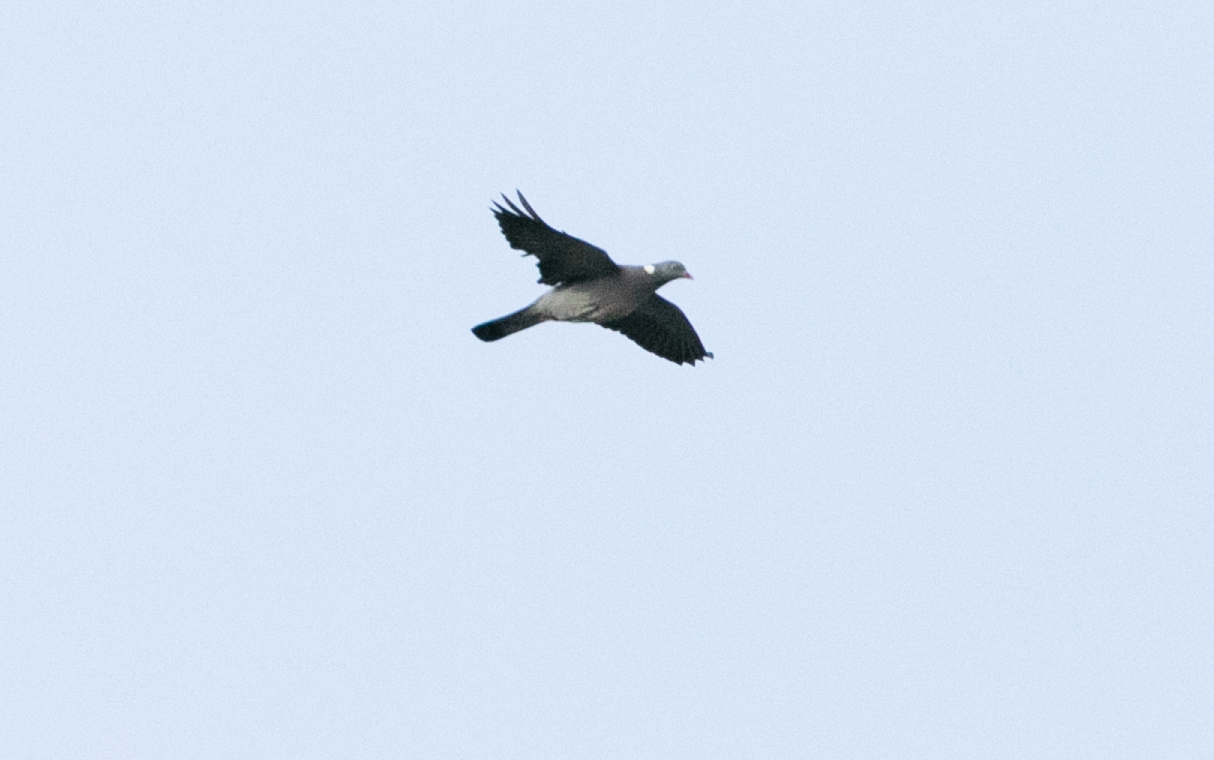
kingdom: Animalia
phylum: Chordata
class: Aves
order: Columbiformes
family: Columbidae
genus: Columba
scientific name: Columba palumbus
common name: Common wood pigeon
